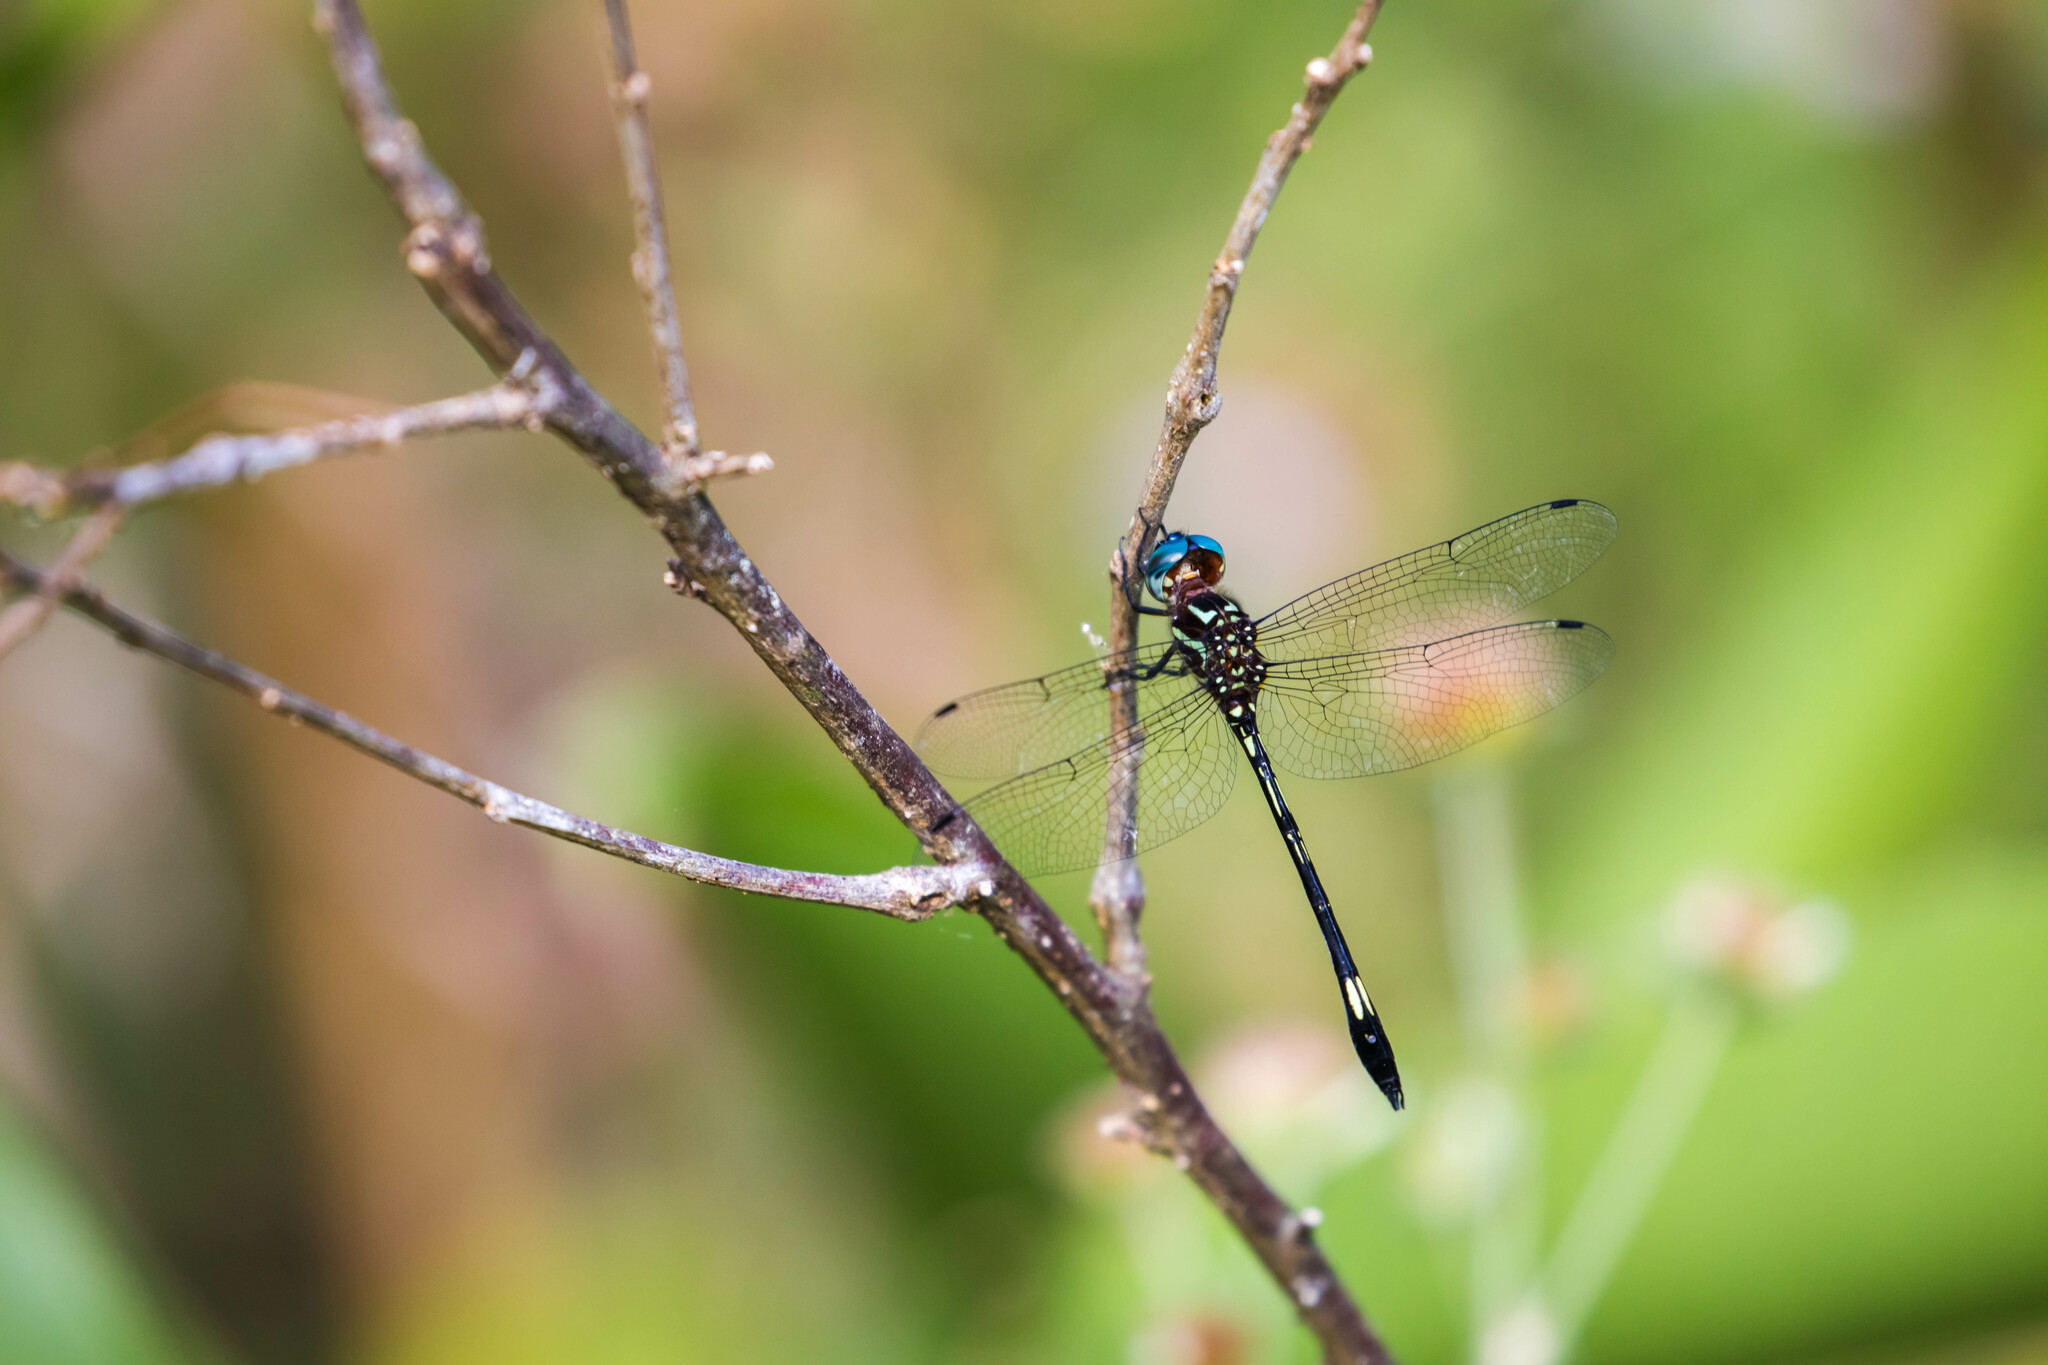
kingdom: Animalia
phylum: Arthropoda
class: Insecta
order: Odonata
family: Libellulidae
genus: Brechmorhoga
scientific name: Brechmorhoga praecox
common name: Slender clubskimmer
